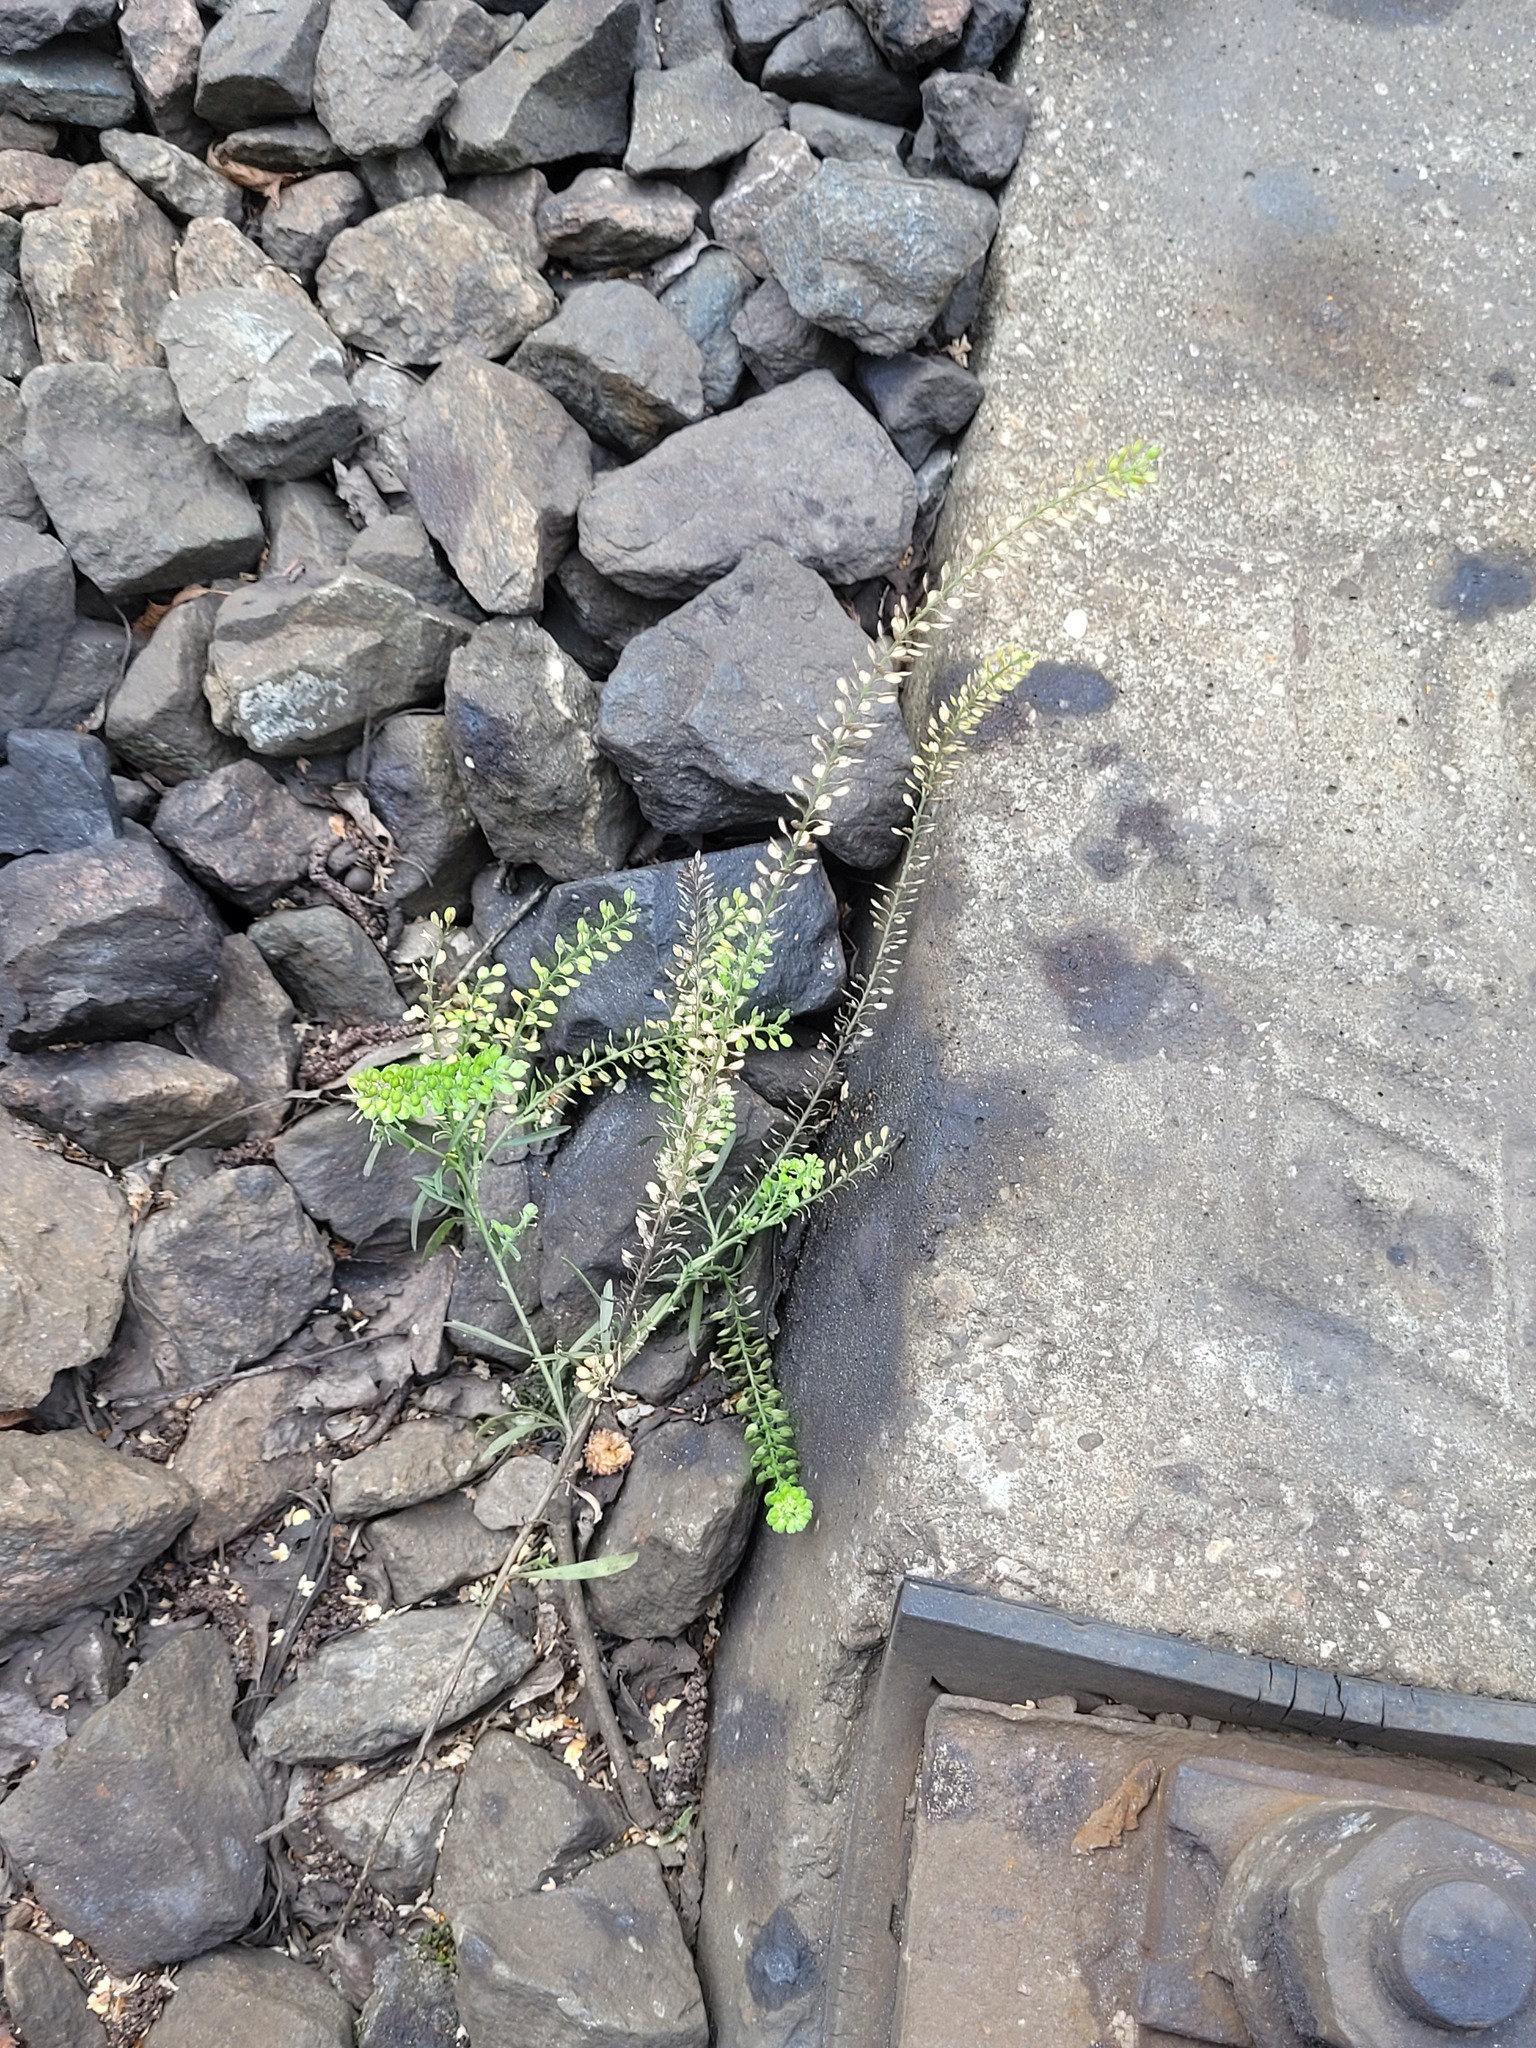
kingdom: Plantae
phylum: Tracheophyta
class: Magnoliopsida
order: Brassicales
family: Brassicaceae
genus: Lepidium
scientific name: Lepidium densiflorum
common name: Miner's pepperwort
